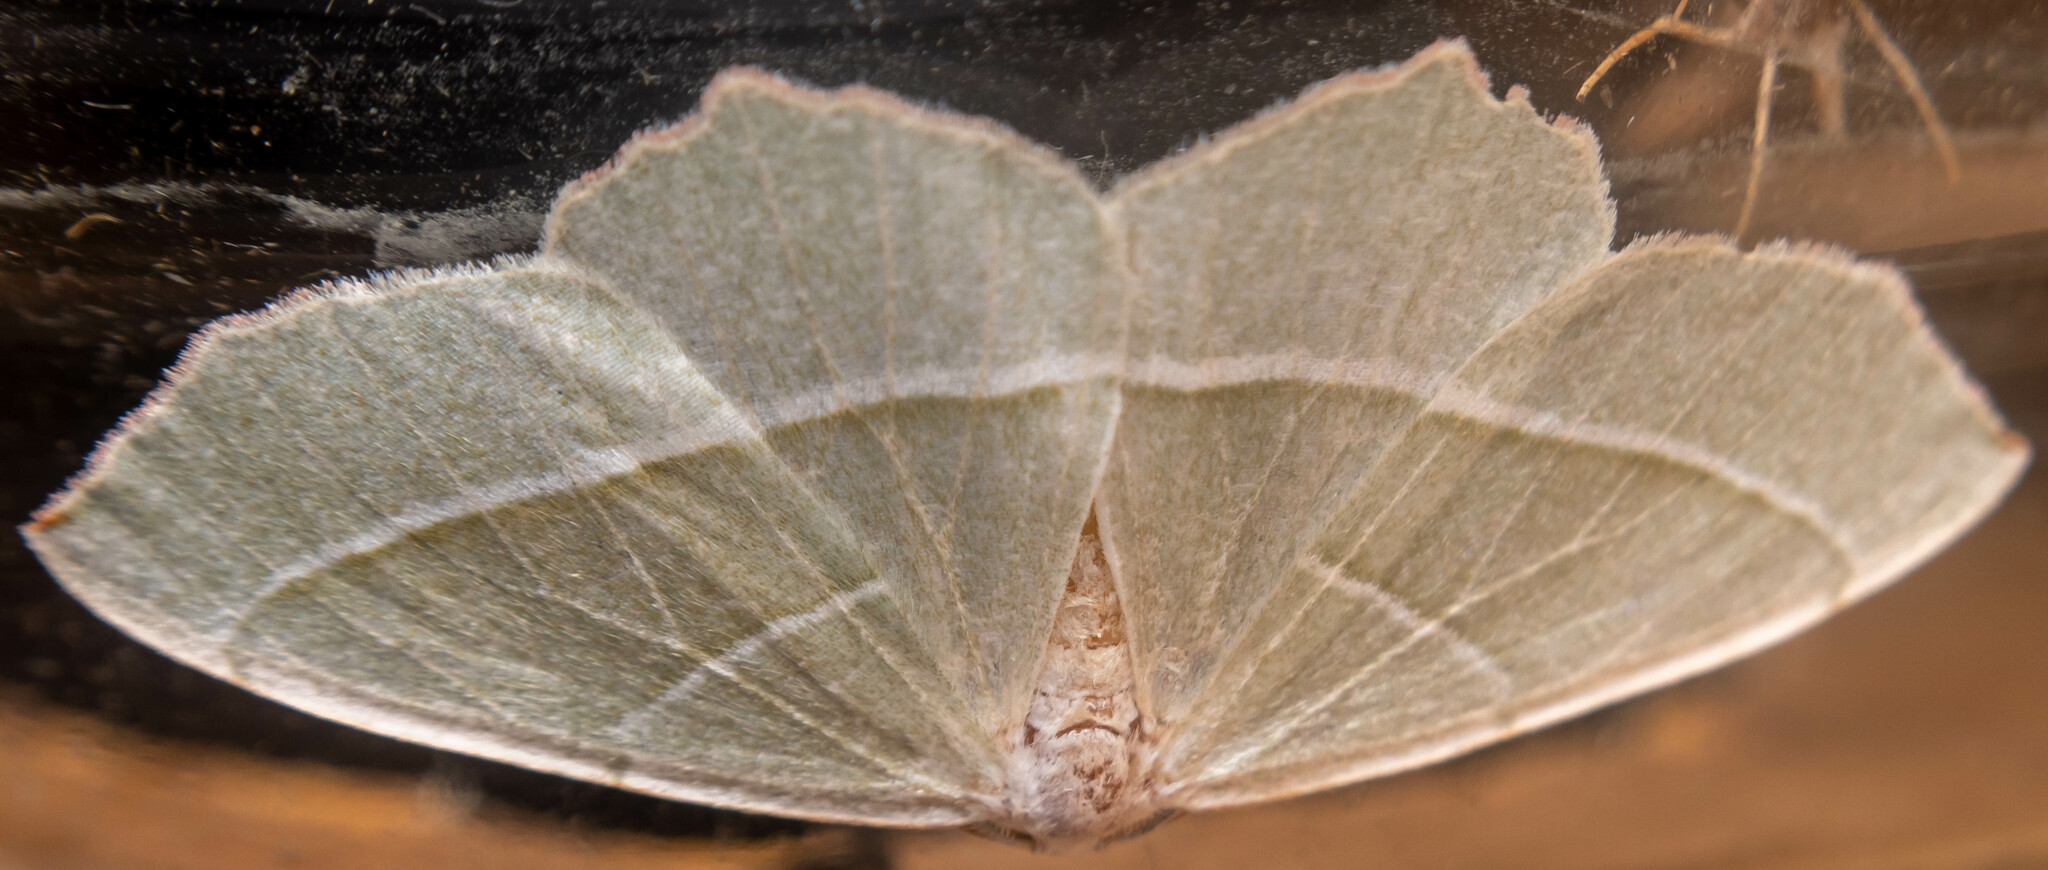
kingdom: Animalia
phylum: Arthropoda
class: Insecta
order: Lepidoptera
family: Geometridae
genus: Campaea
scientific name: Campaea margaritaria
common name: Light emerald
